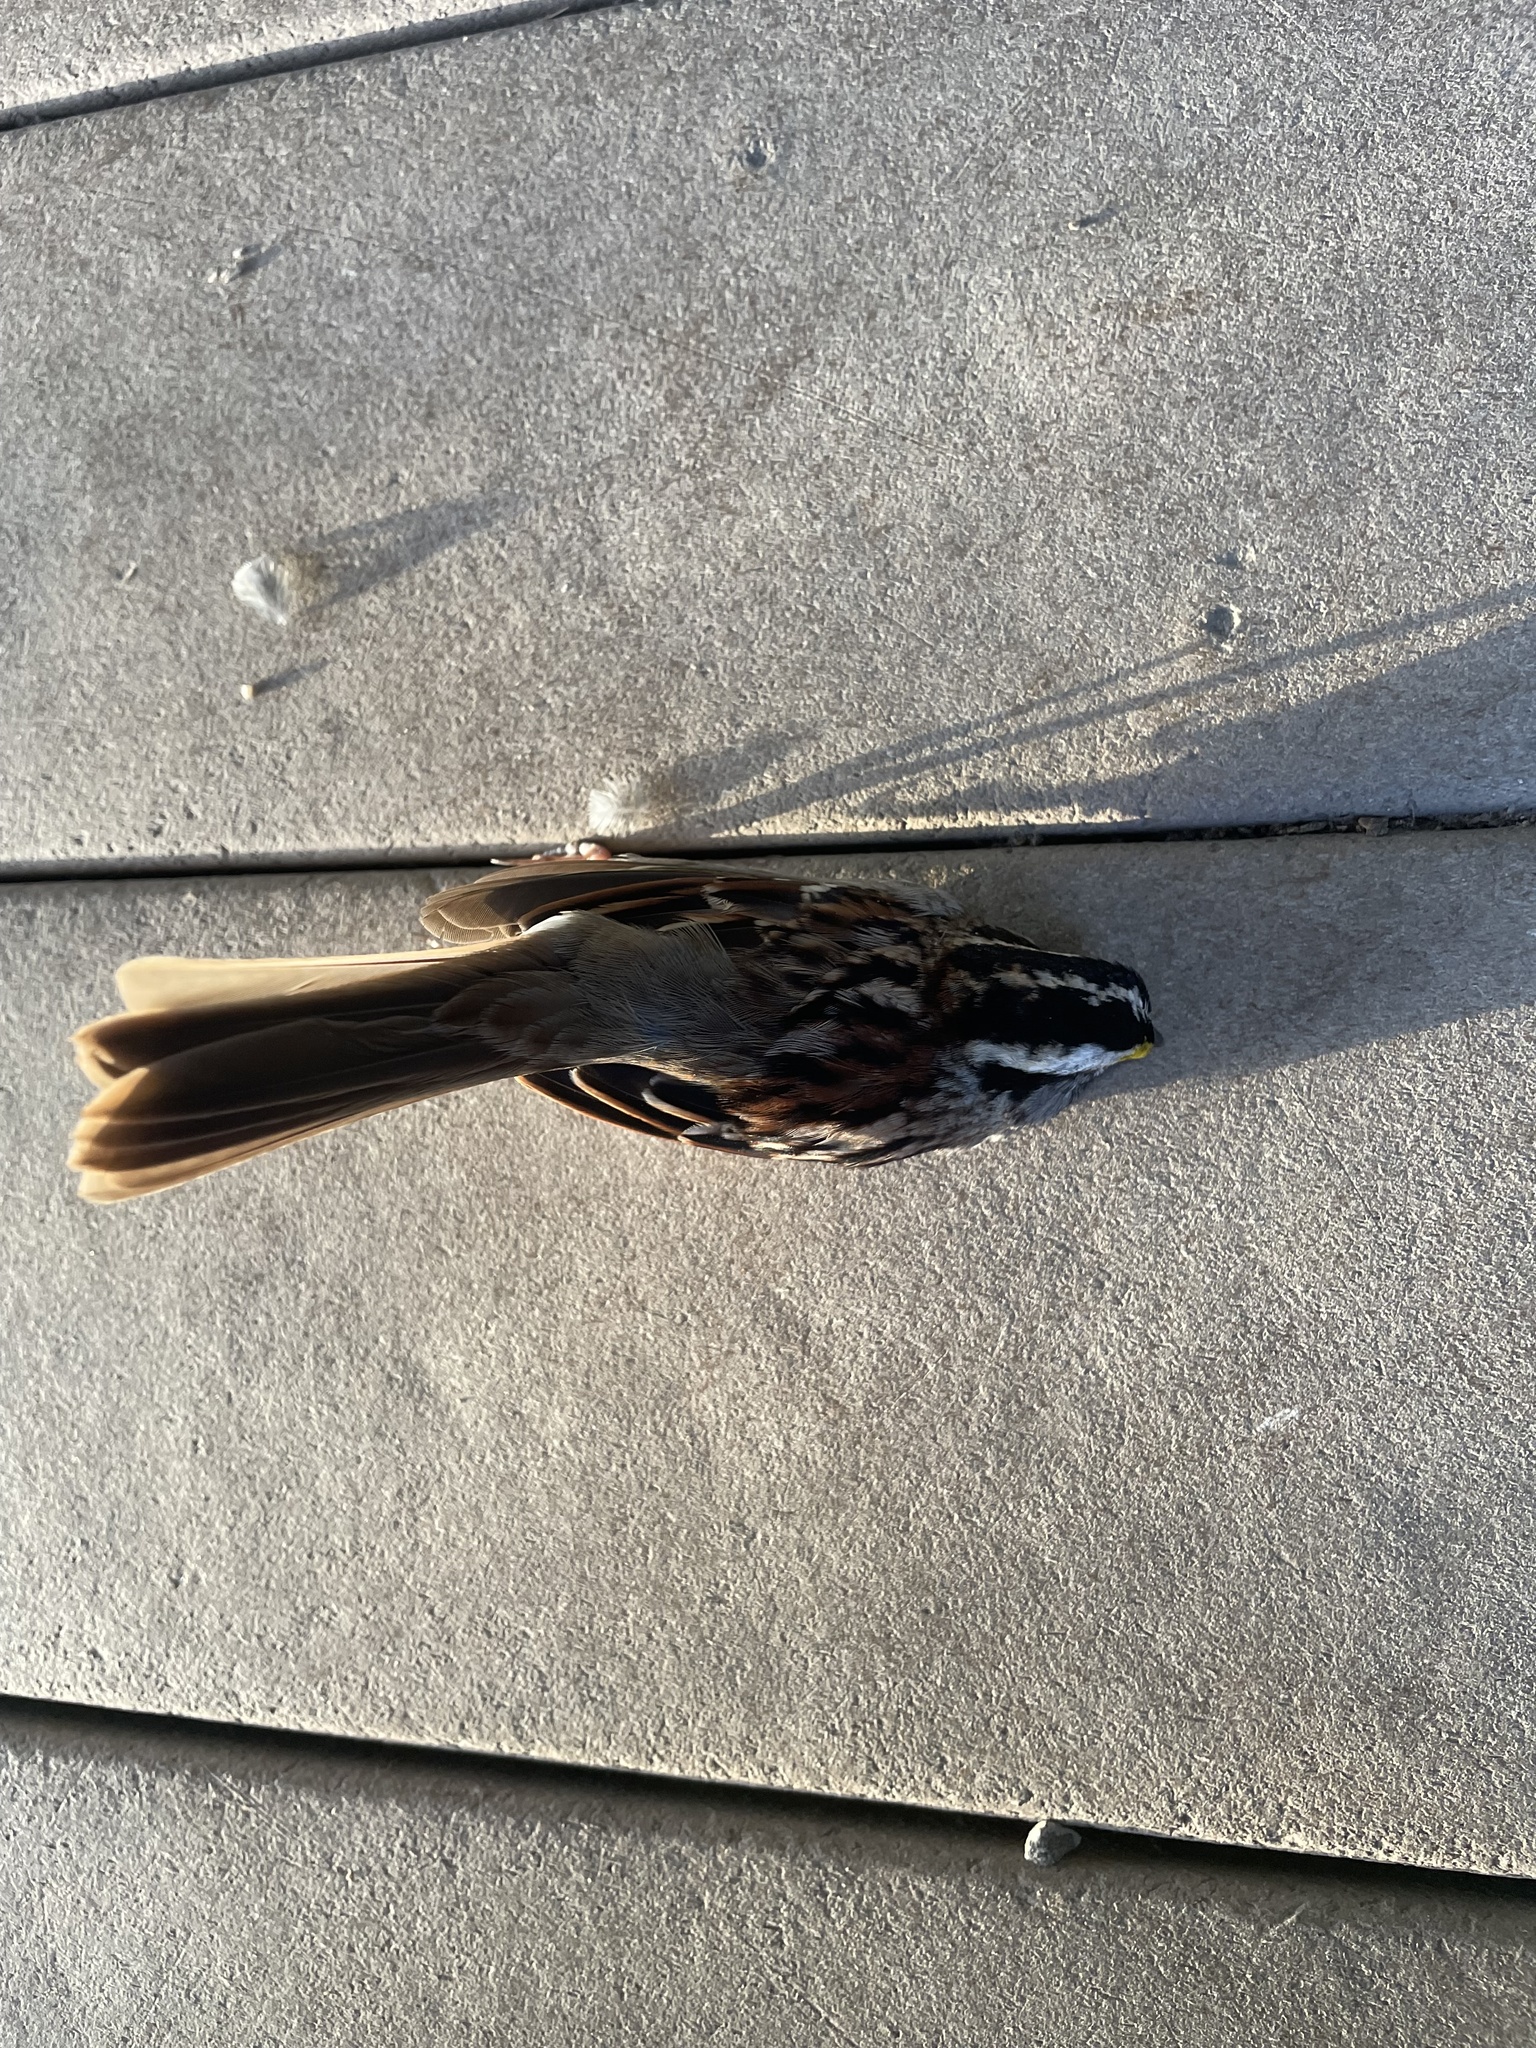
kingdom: Animalia
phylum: Chordata
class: Aves
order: Passeriformes
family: Passerellidae
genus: Zonotrichia
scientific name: Zonotrichia albicollis
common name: White-throated sparrow
